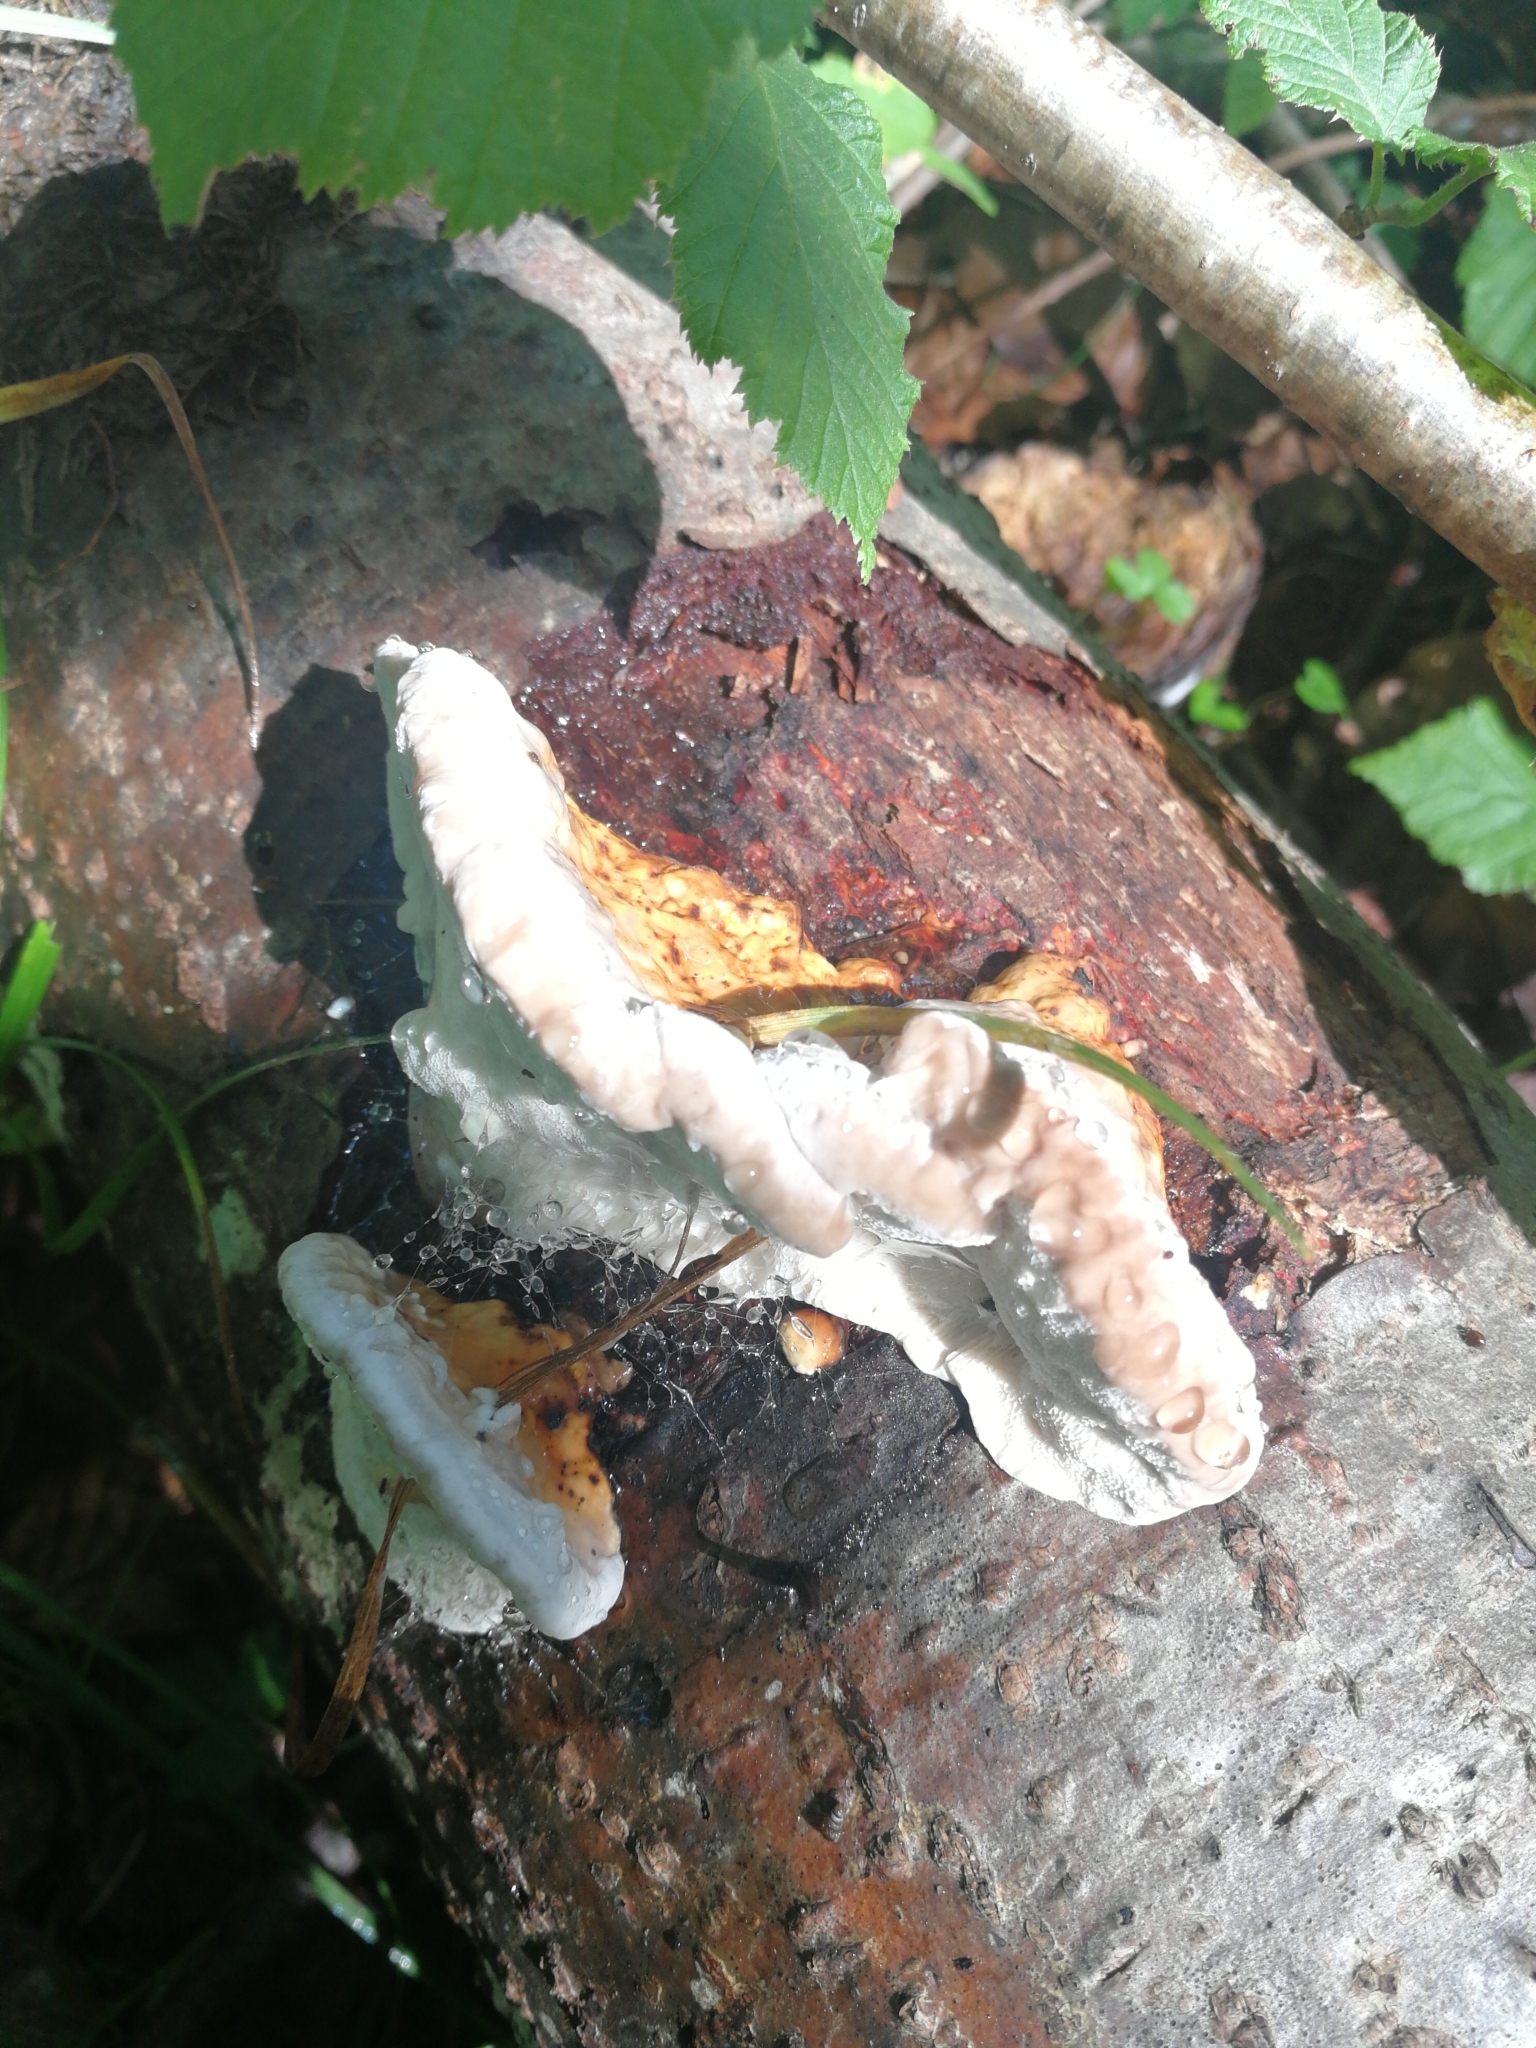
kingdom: Fungi
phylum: Basidiomycota
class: Agaricomycetes
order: Polyporales
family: Fomitopsidaceae
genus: Fomitopsis
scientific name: Fomitopsis pinicola
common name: Red-belted bracket
